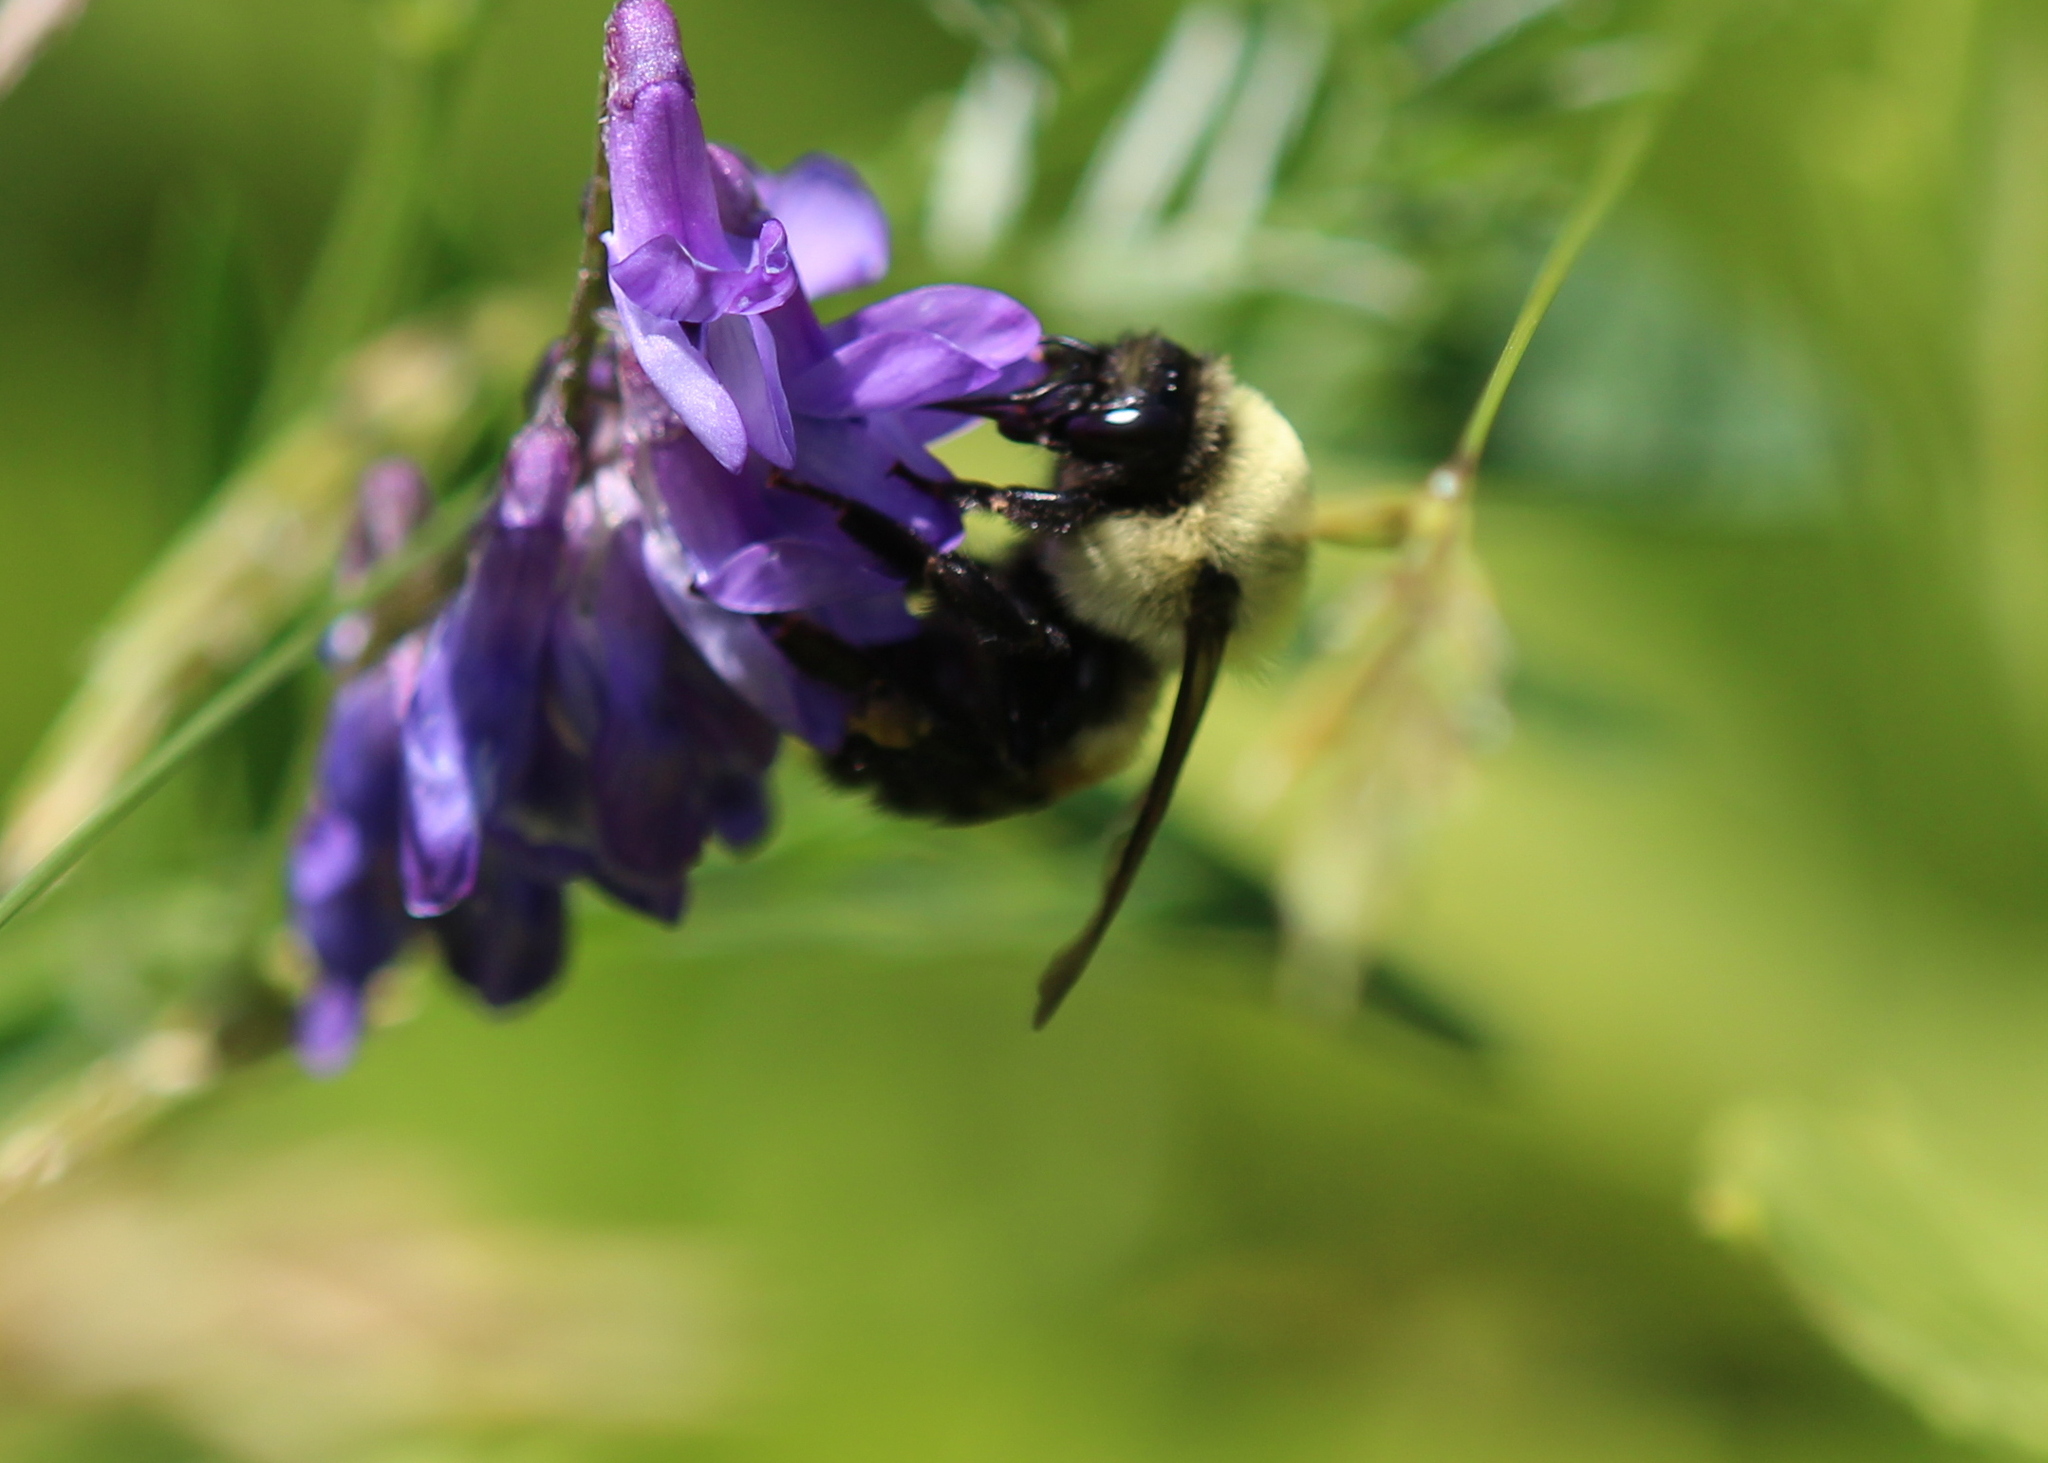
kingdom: Animalia
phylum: Arthropoda
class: Insecta
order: Hymenoptera
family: Apidae
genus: Bombus
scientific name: Bombus griseocollis
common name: Brown-belted bumble bee
